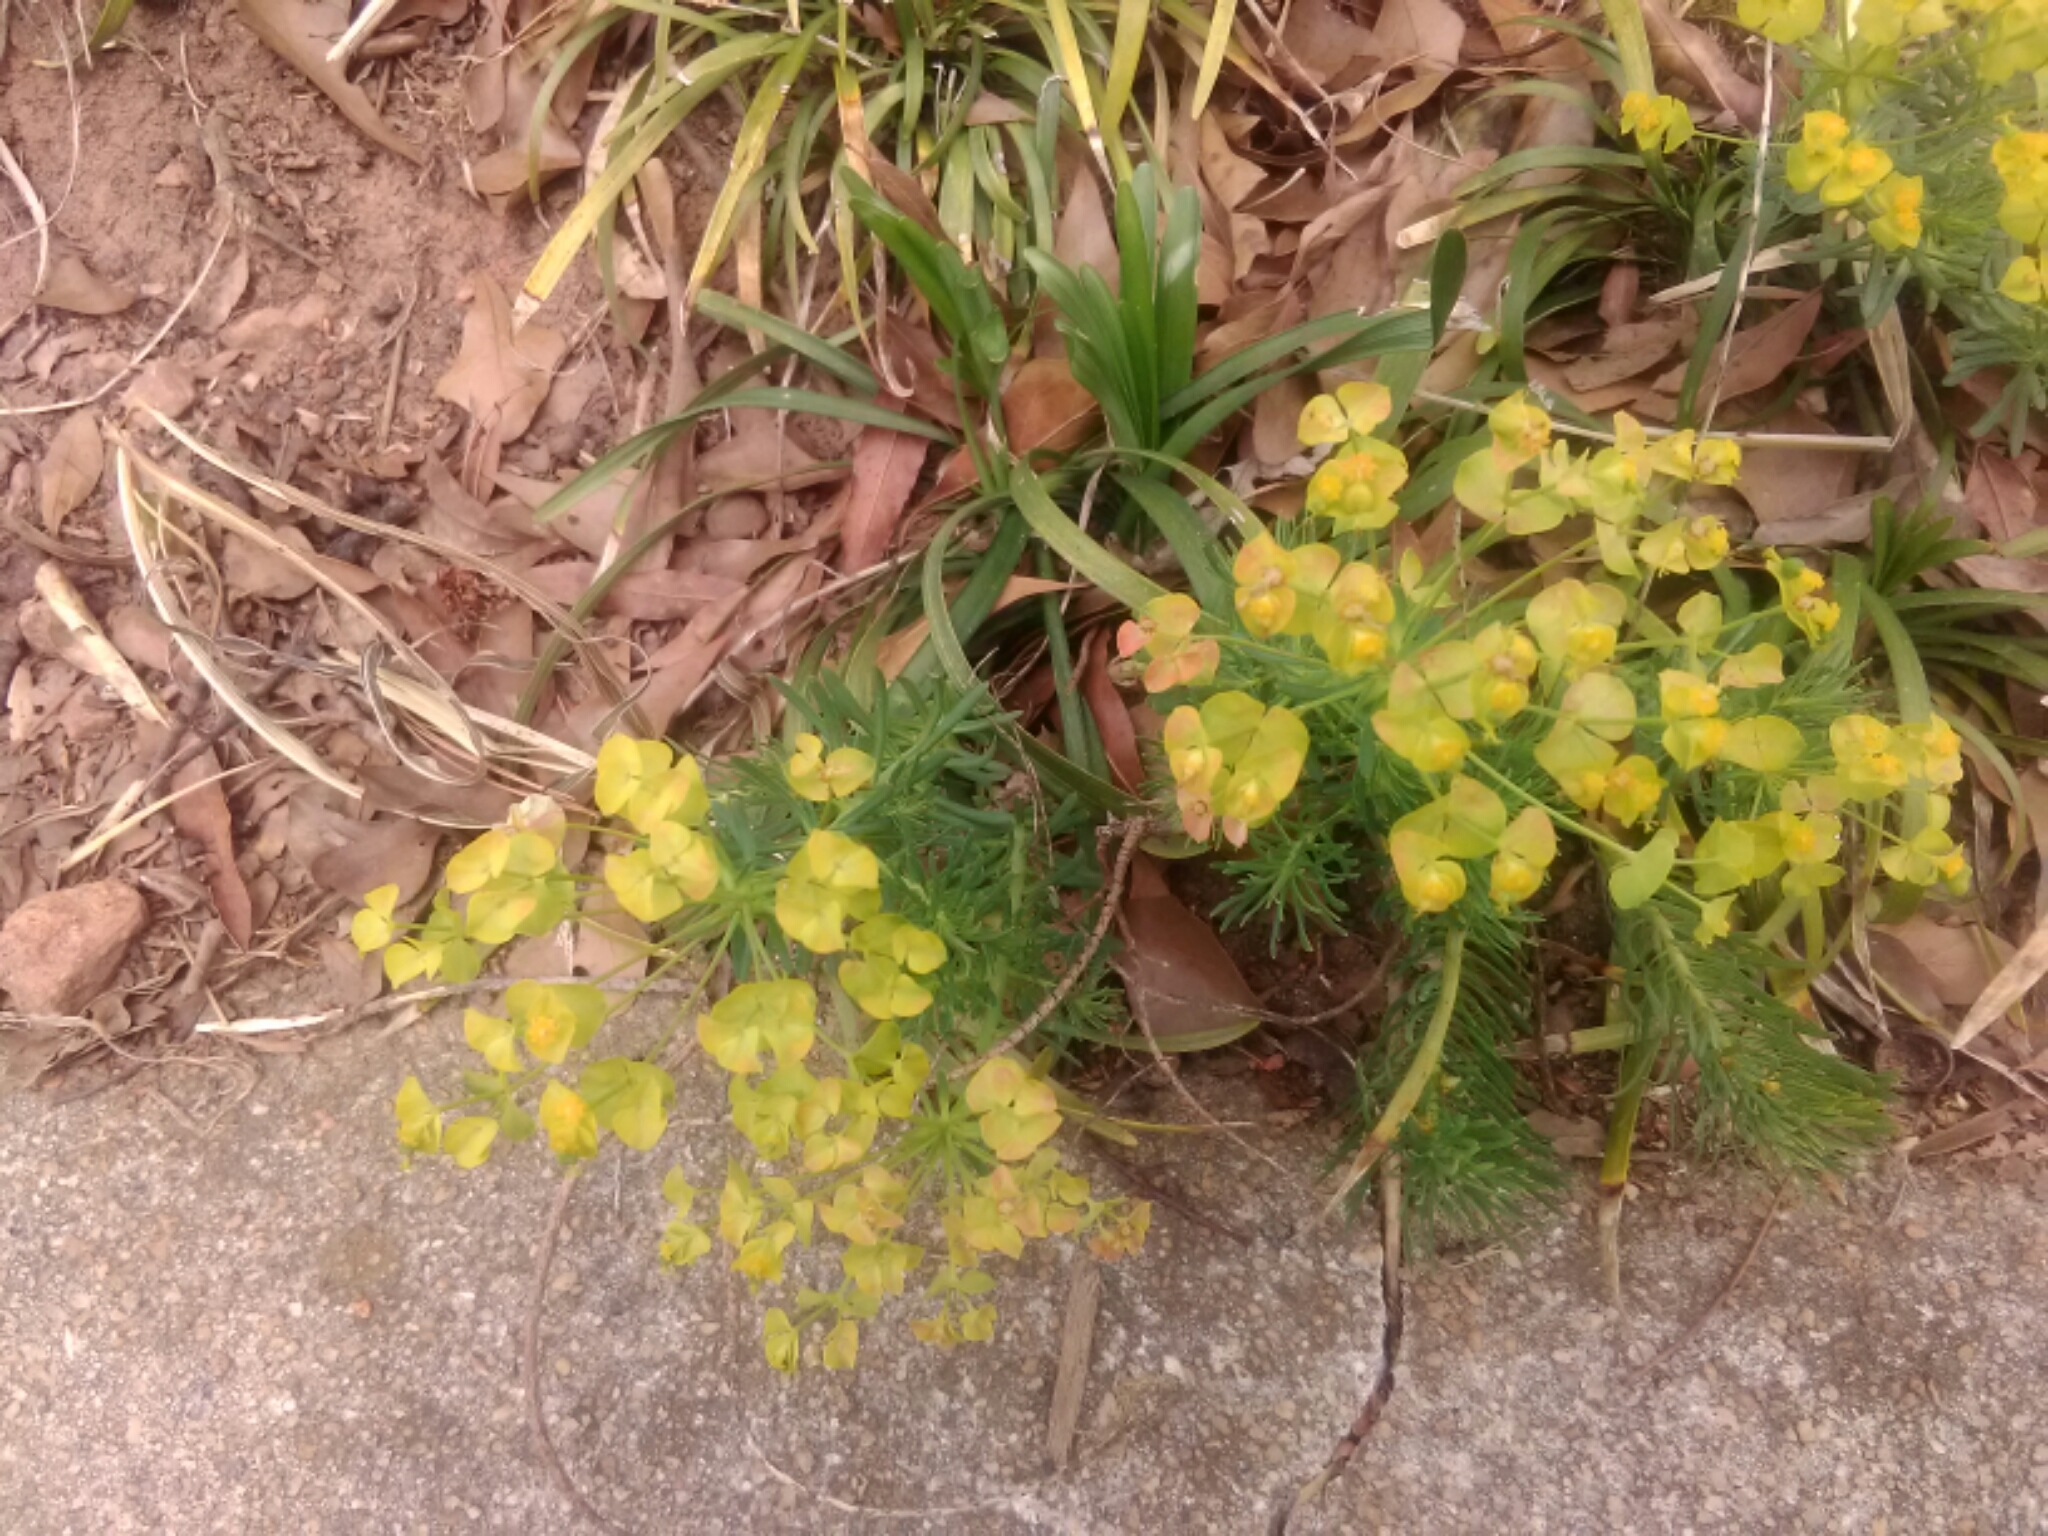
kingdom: Plantae
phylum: Tracheophyta
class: Magnoliopsida
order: Malpighiales
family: Euphorbiaceae
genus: Euphorbia
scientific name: Euphorbia cyparissias
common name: Cypress spurge
